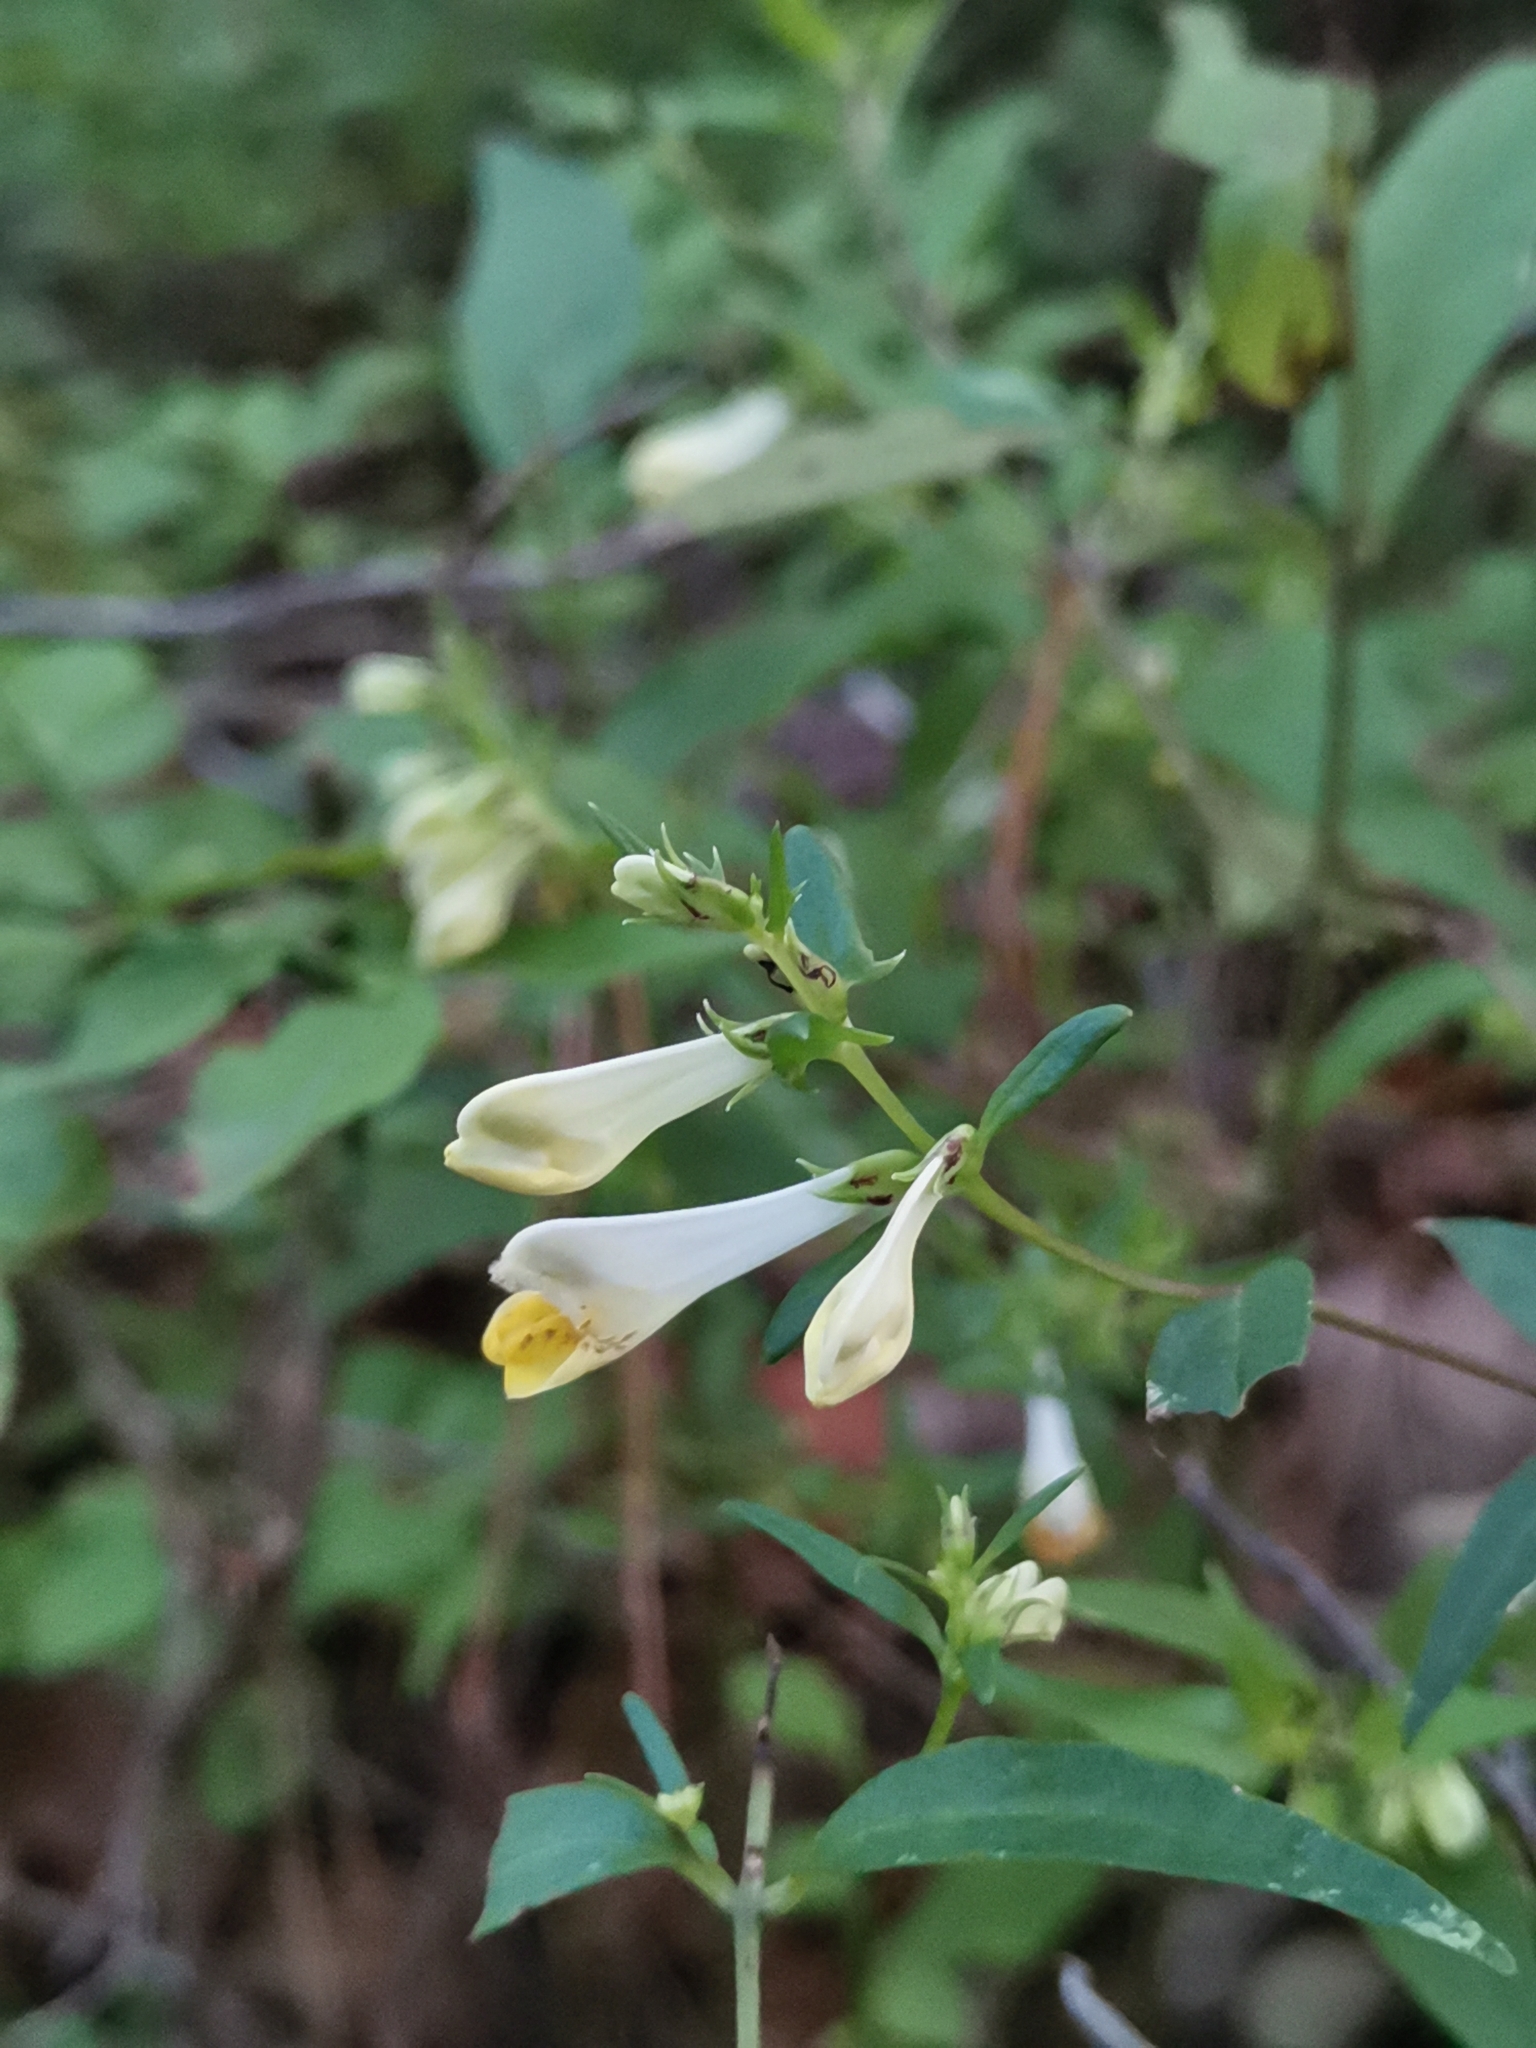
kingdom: Plantae
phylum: Tracheophyta
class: Magnoliopsida
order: Lamiales
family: Orobanchaceae
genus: Melampyrum
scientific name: Melampyrum pratense
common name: Common cow-wheat
